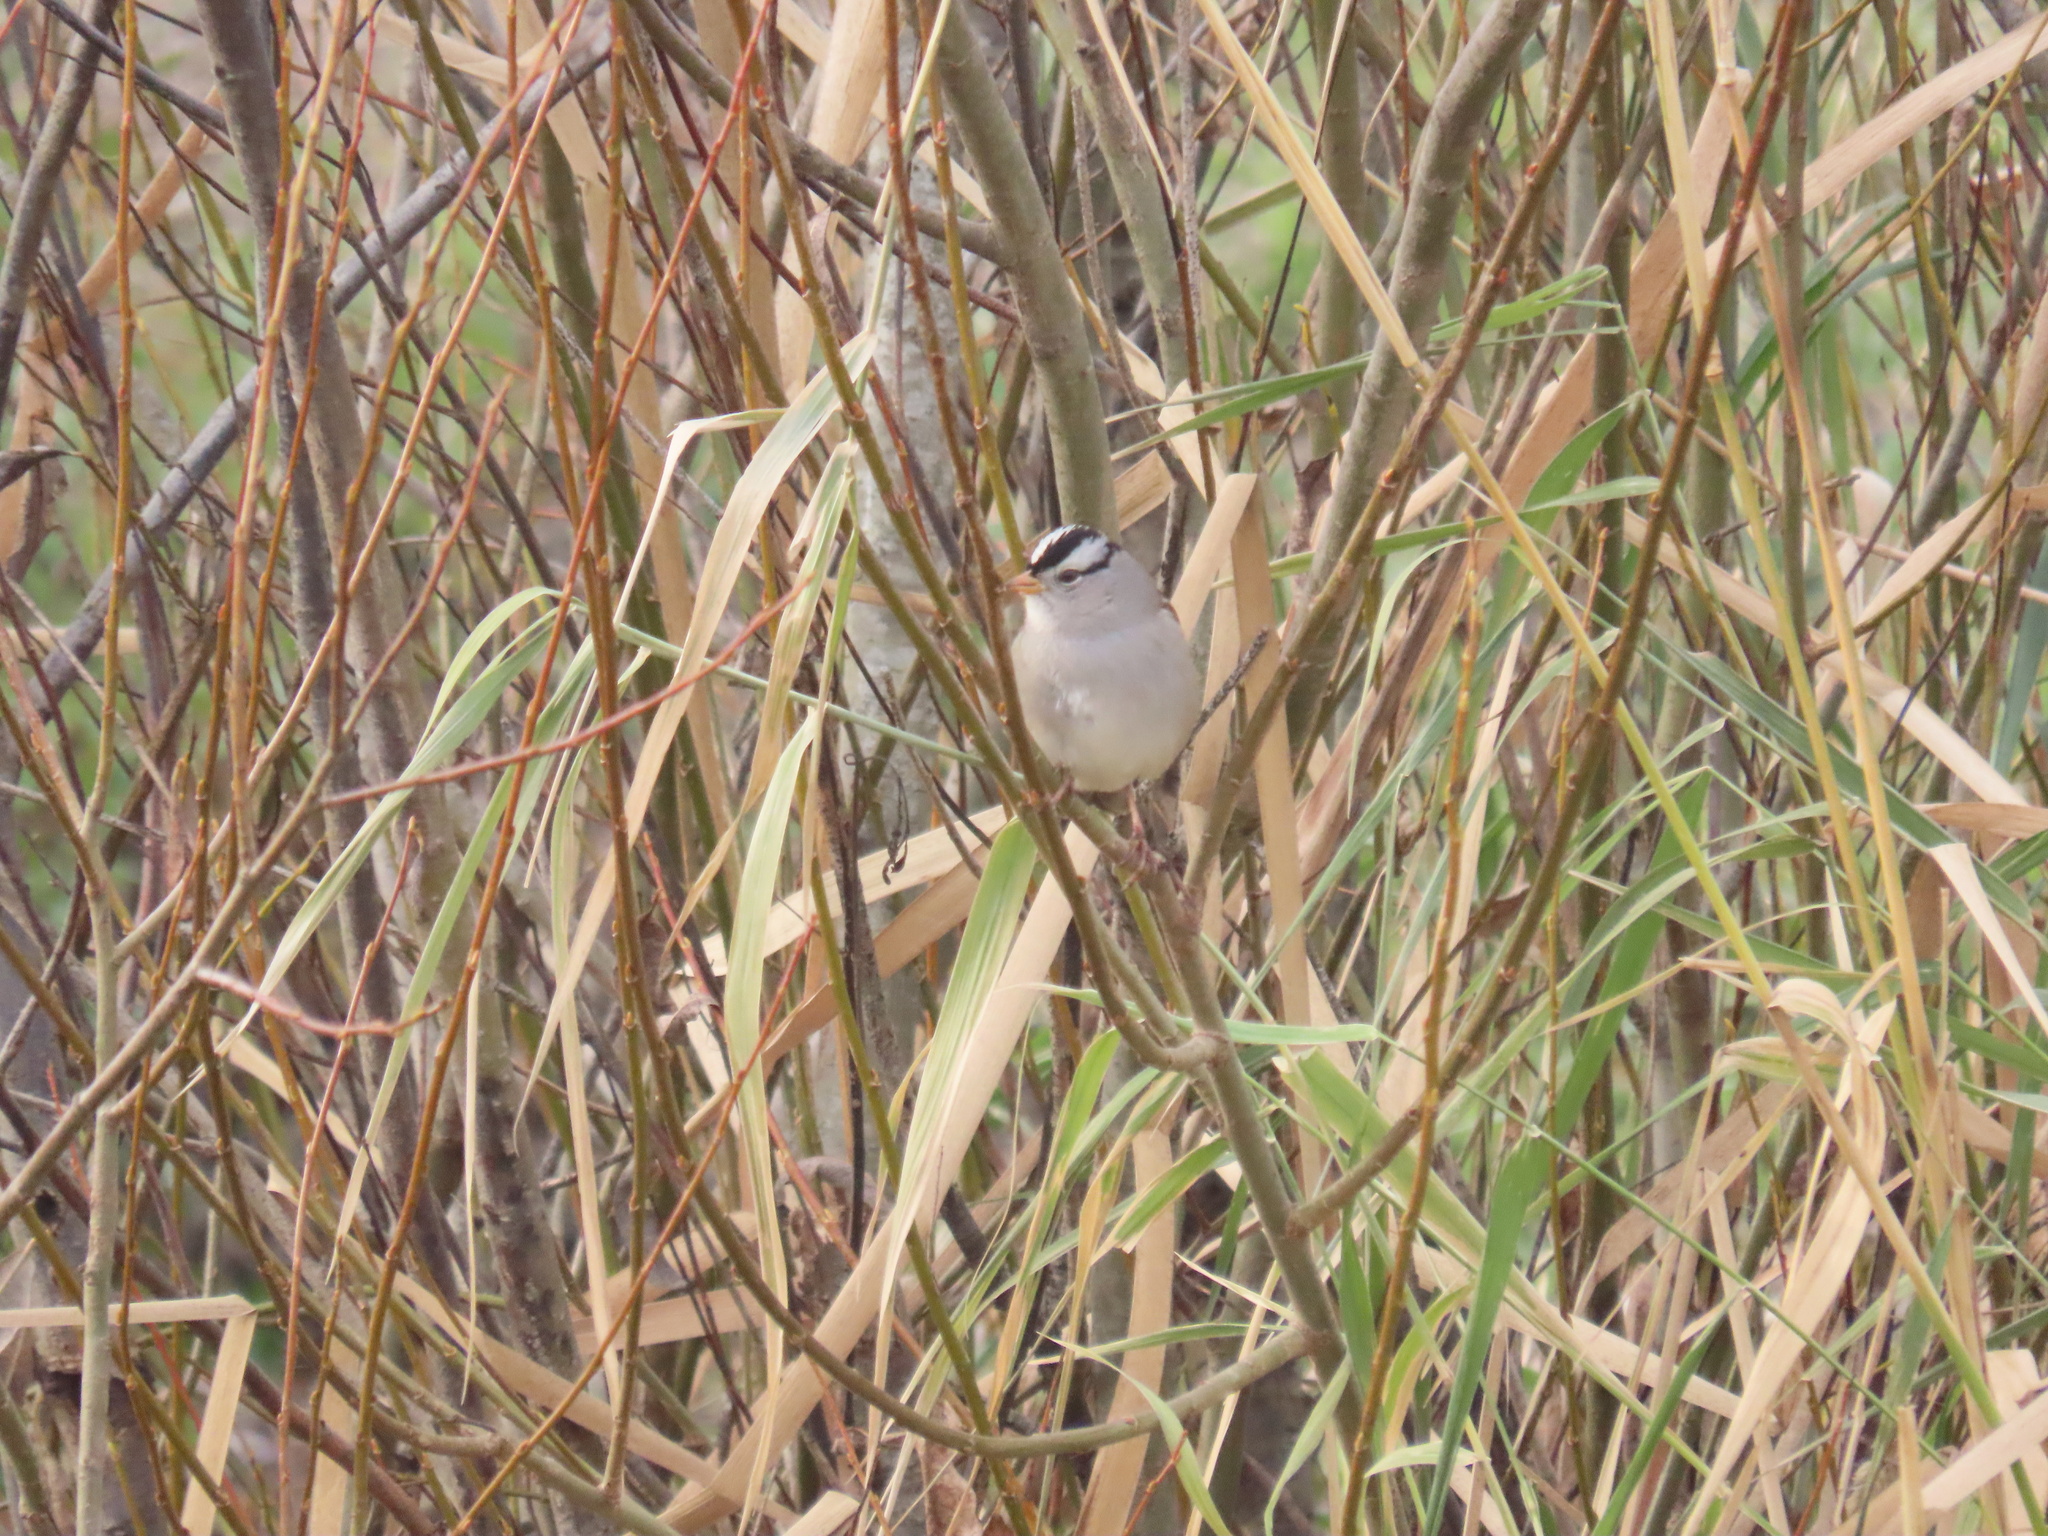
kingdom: Animalia
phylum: Chordata
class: Aves
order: Passeriformes
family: Passerellidae
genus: Zonotrichia
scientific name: Zonotrichia leucophrys
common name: White-crowned sparrow
